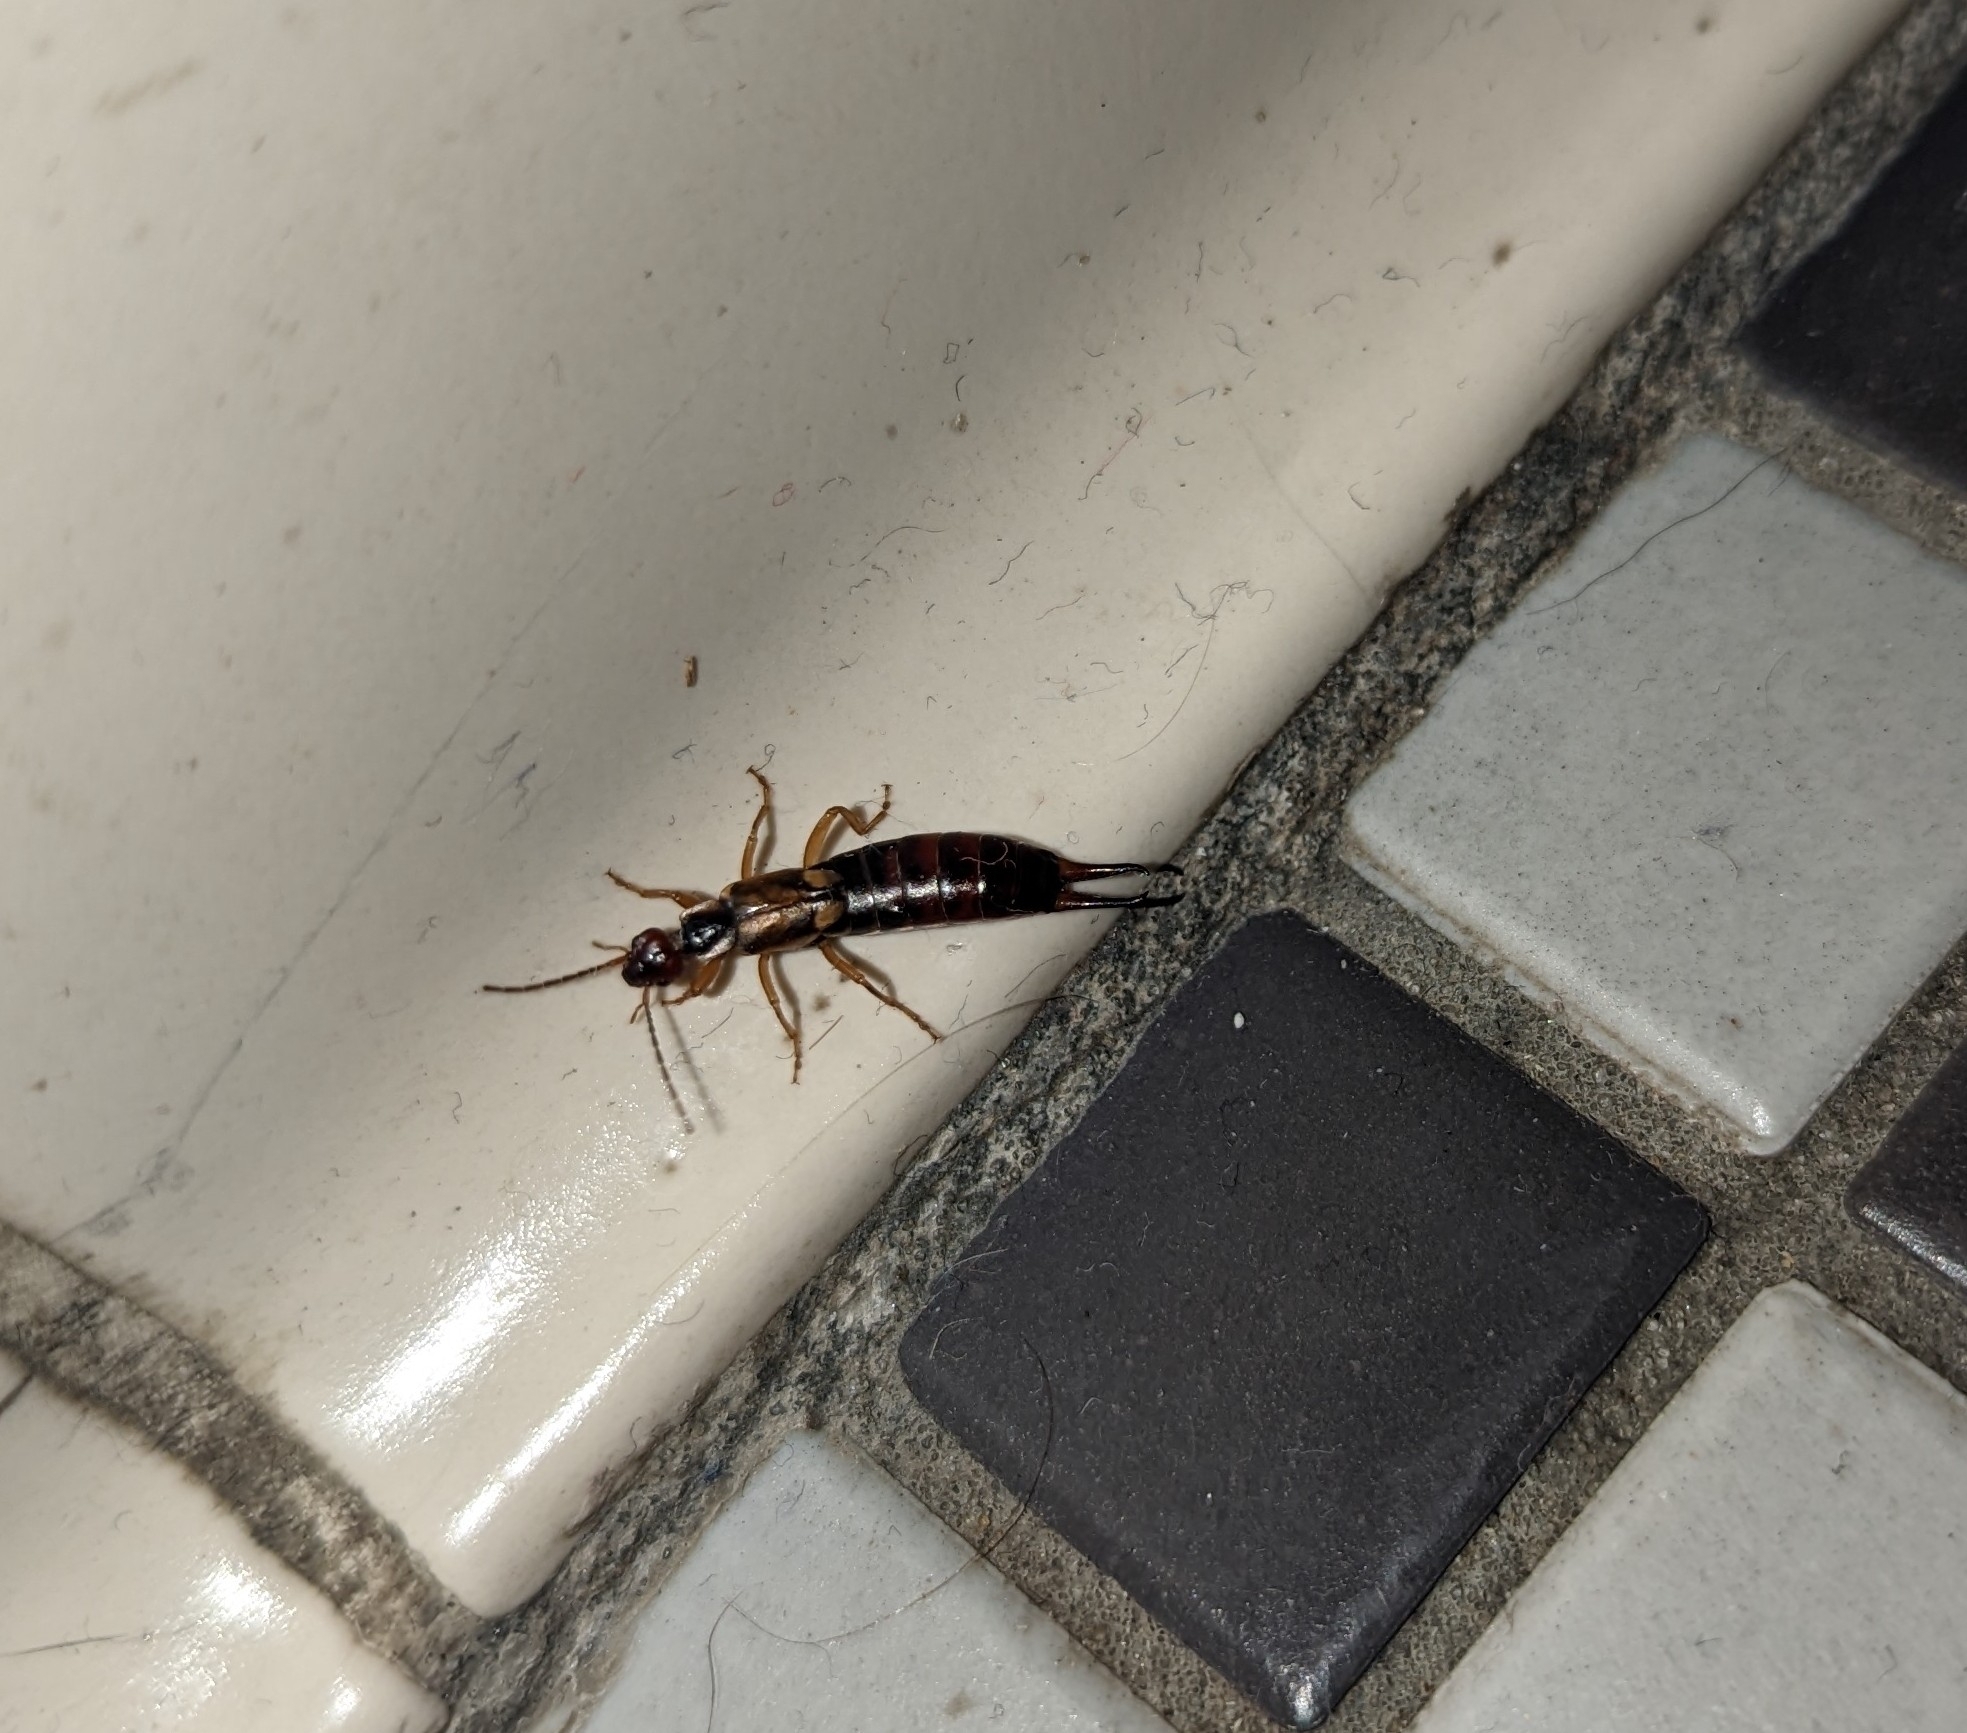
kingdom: Animalia
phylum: Arthropoda
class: Insecta
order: Dermaptera
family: Forficulidae
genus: Forficula
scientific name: Forficula
